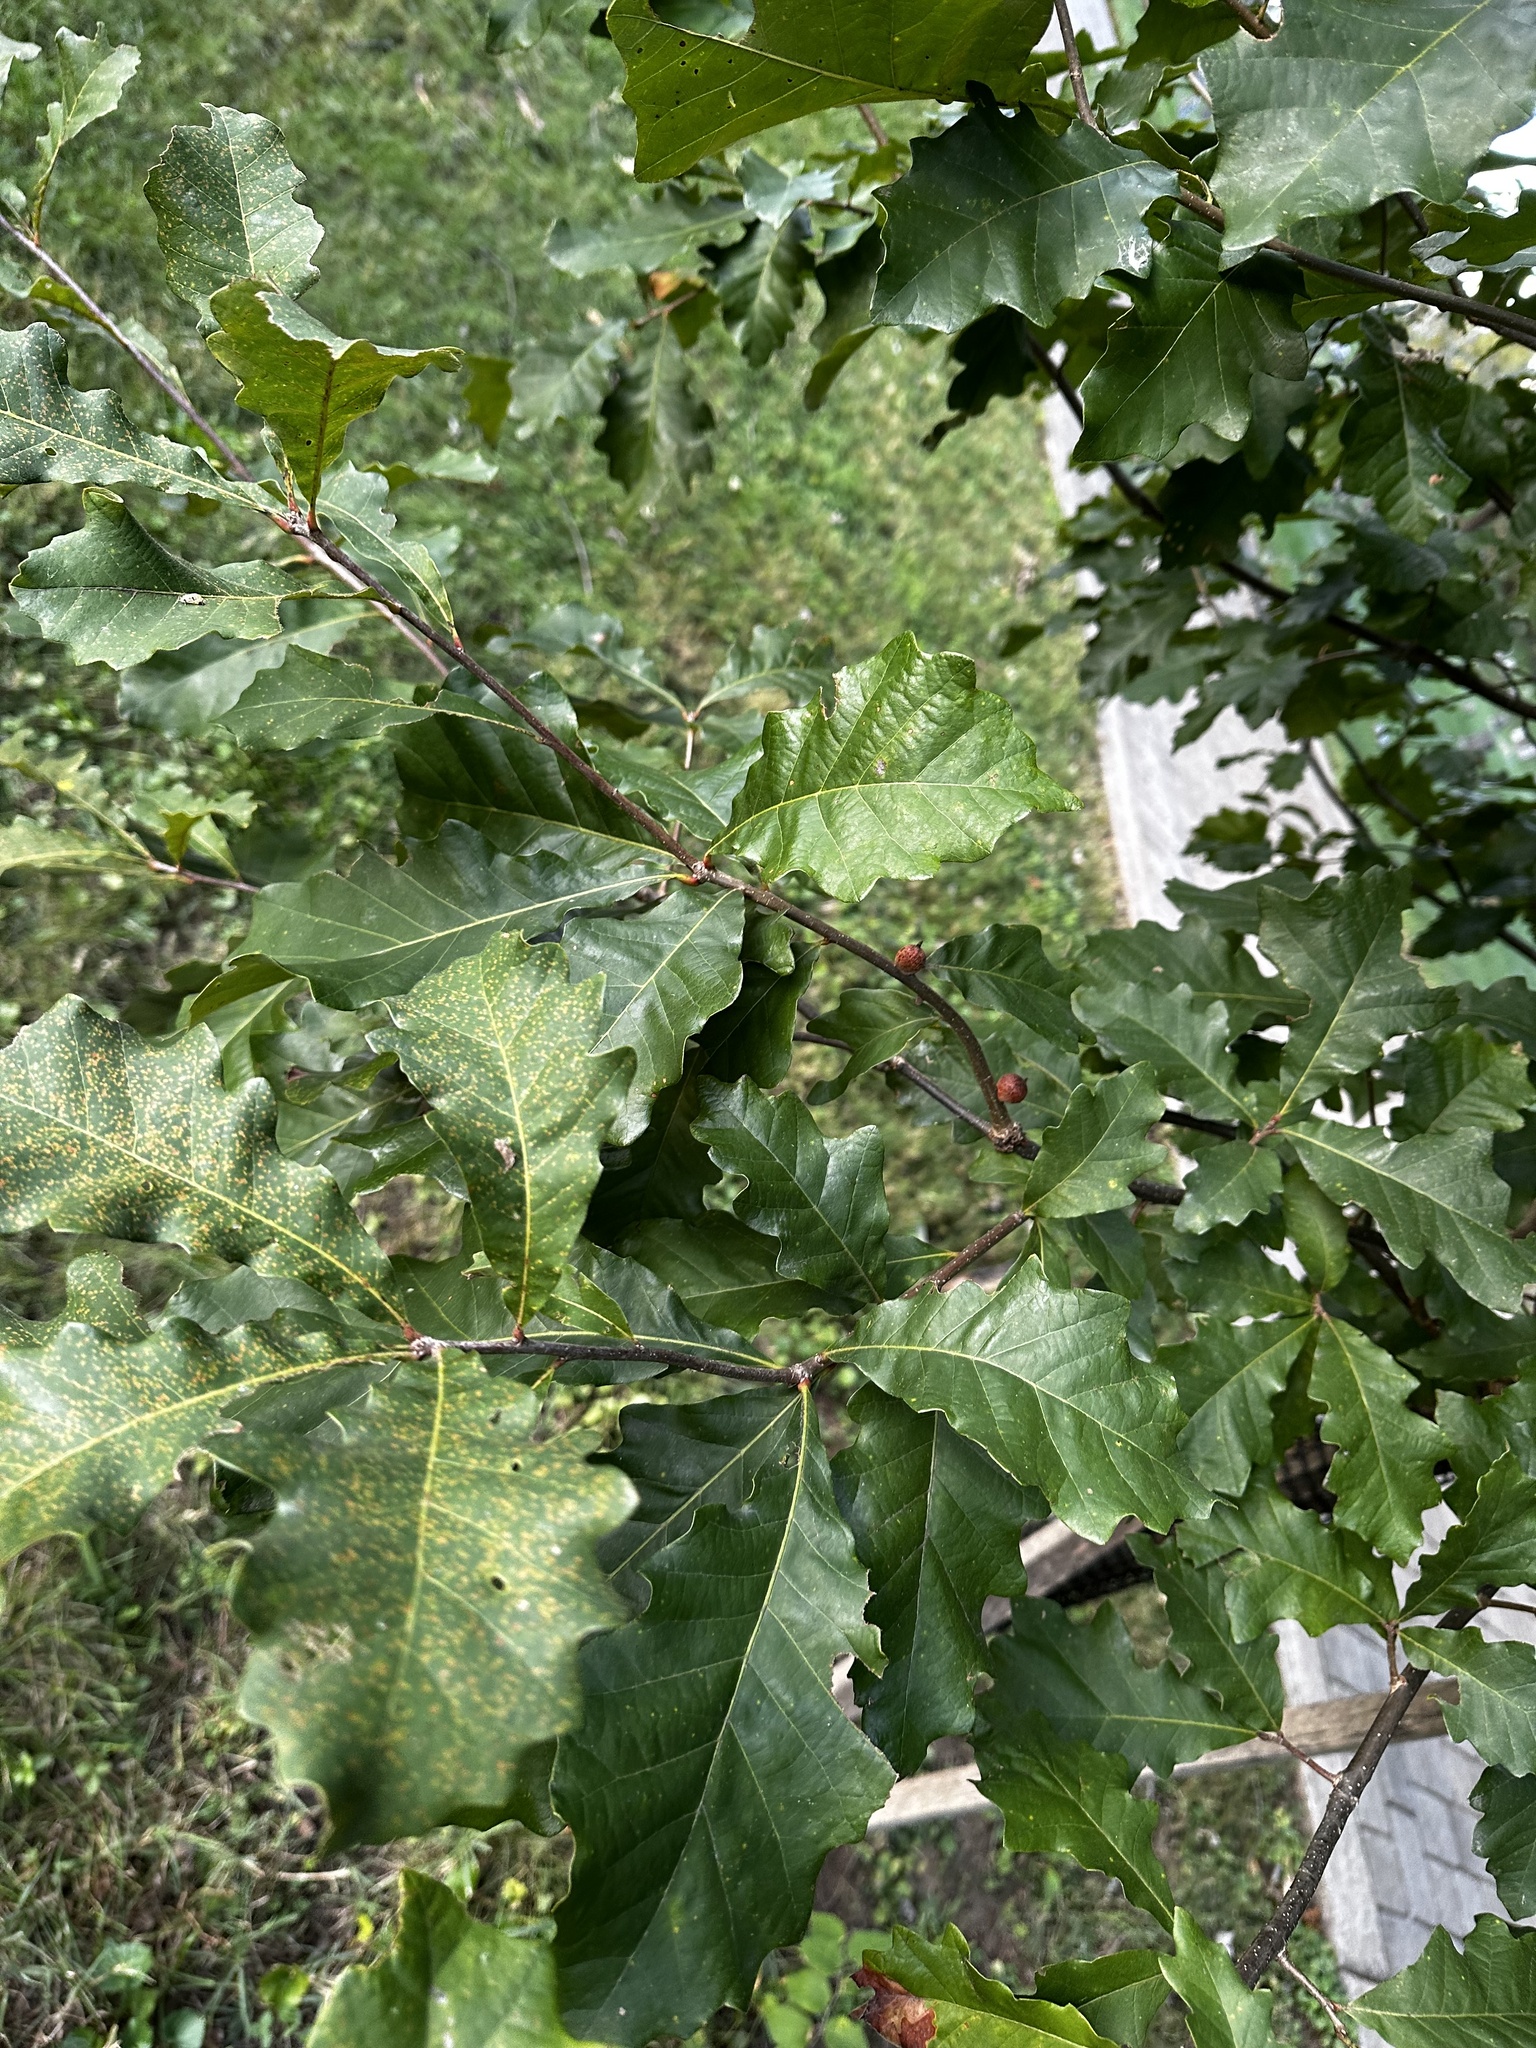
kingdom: Animalia
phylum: Arthropoda
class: Insecta
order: Hymenoptera
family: Cynipidae
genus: Disholcaspis
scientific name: Disholcaspis
